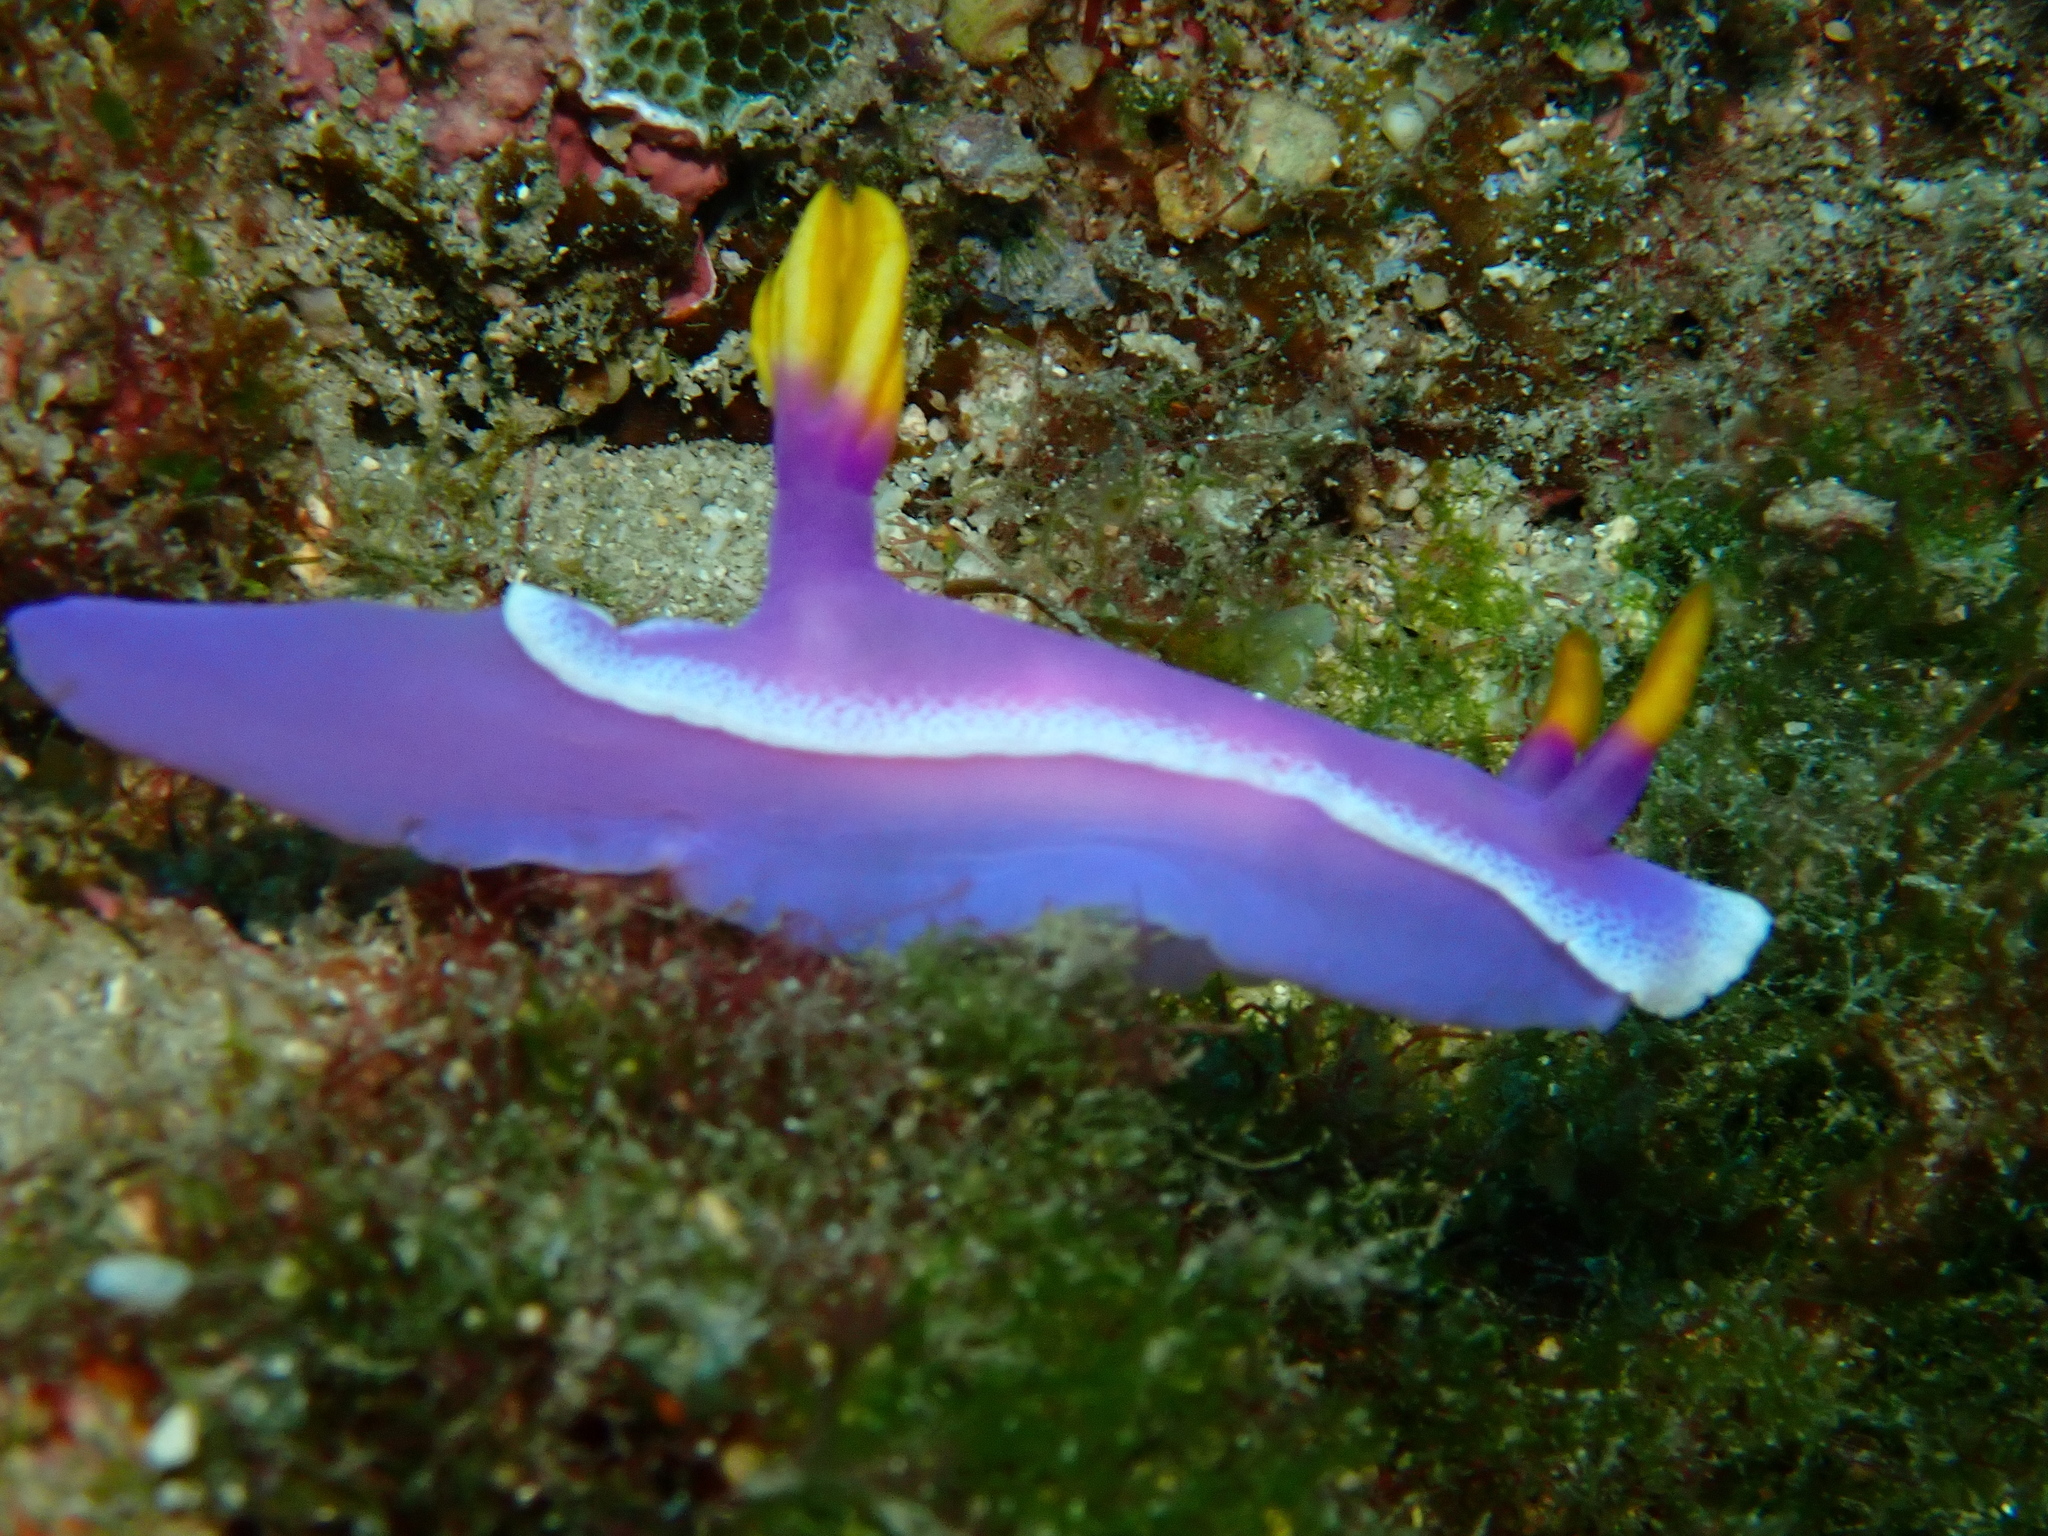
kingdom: Animalia
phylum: Mollusca
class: Gastropoda
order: Nudibranchia
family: Chromodorididae
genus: Hypselodoris
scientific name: Hypselodoris apolegma
